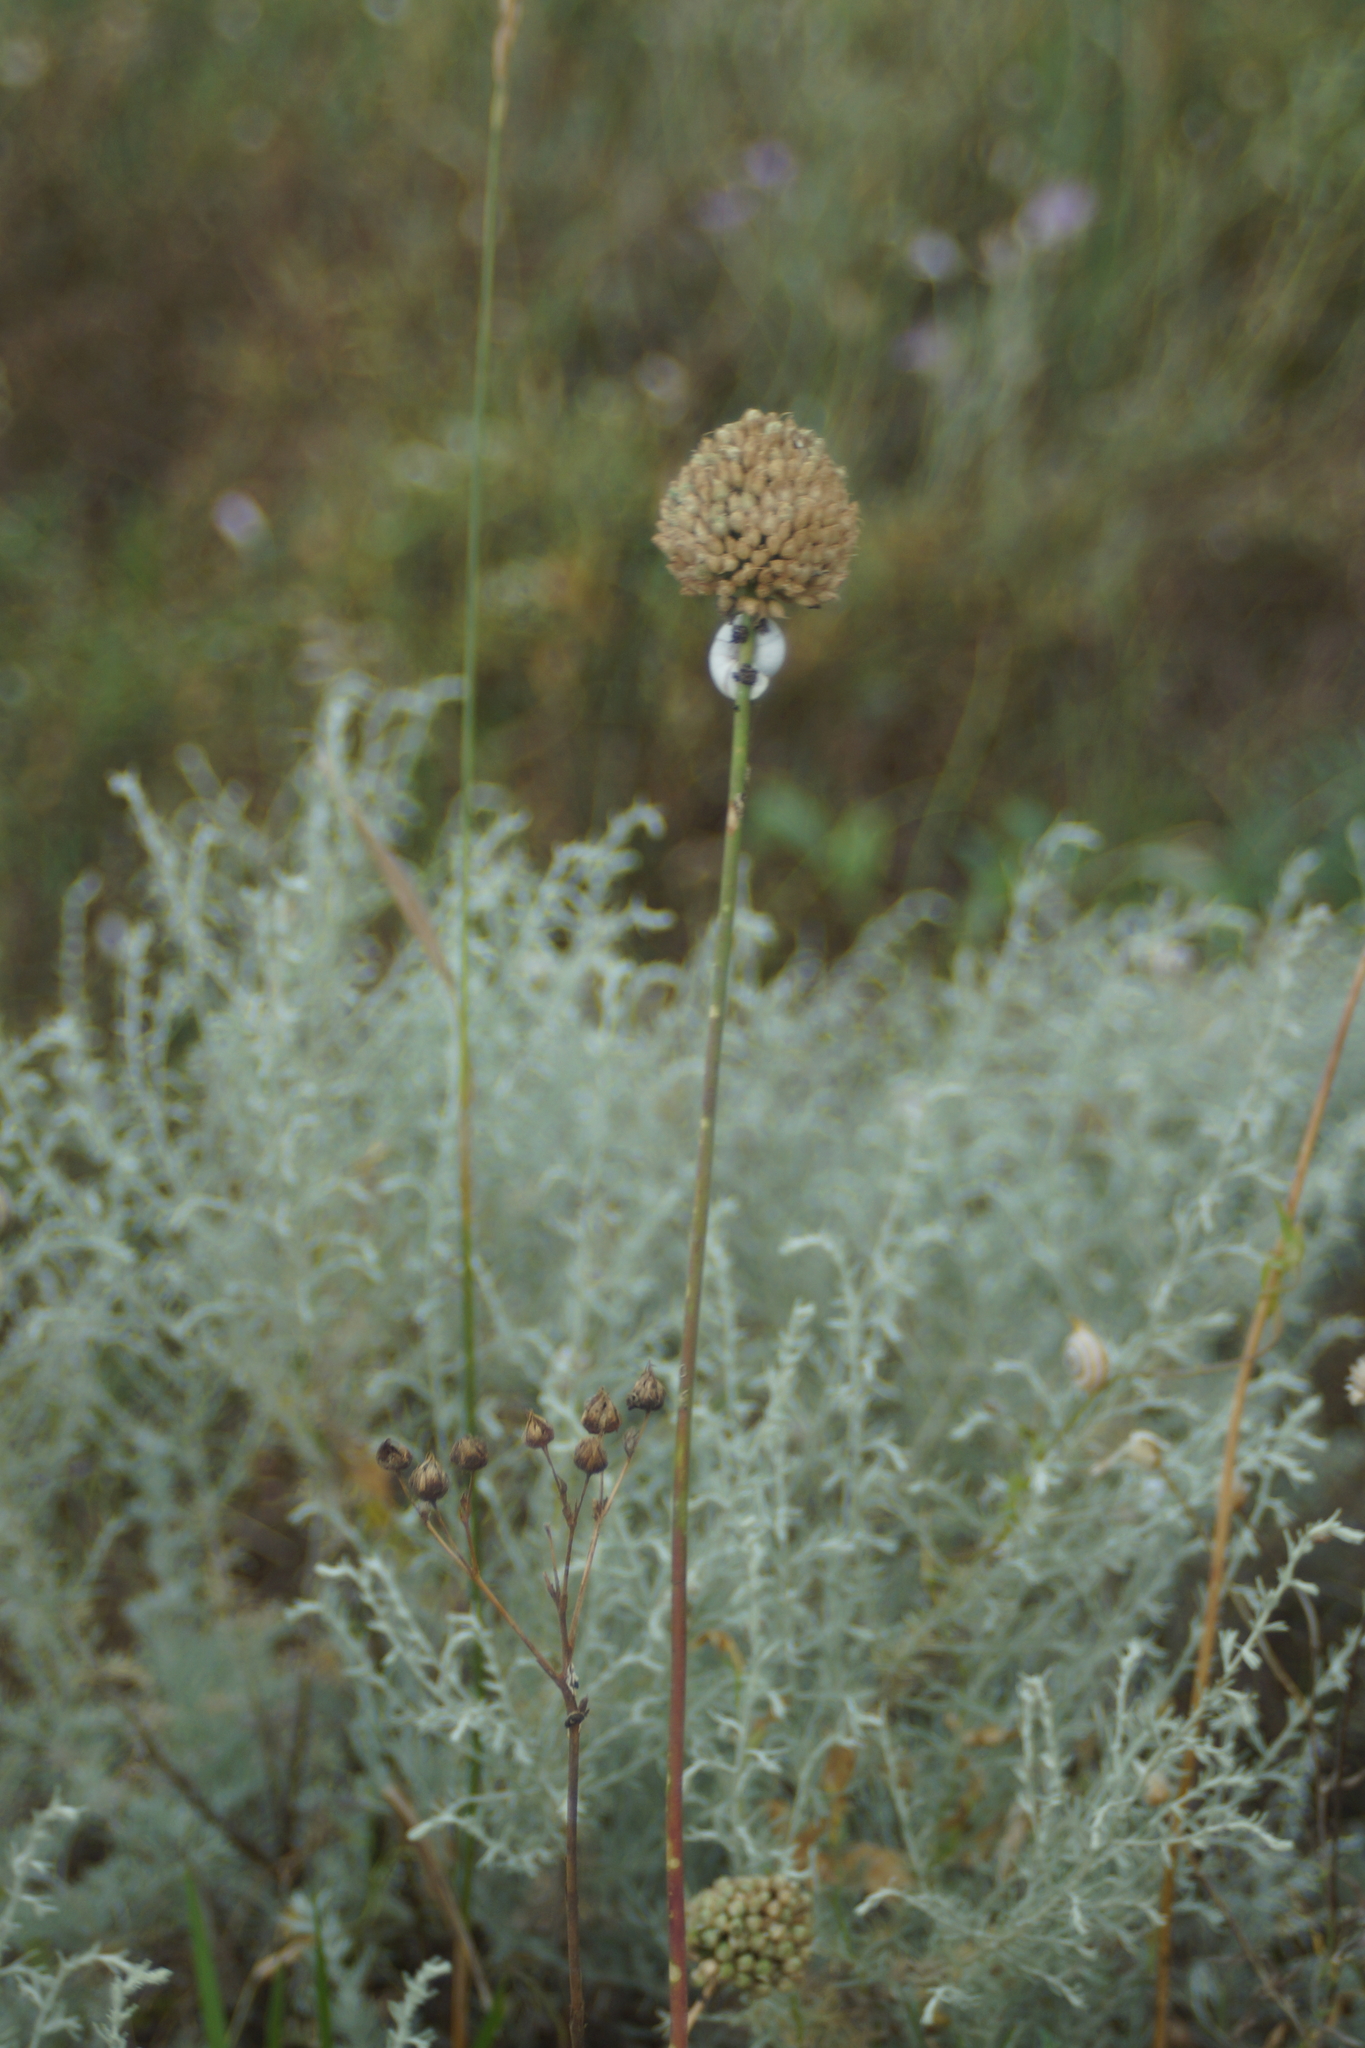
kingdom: Plantae
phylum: Tracheophyta
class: Liliopsida
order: Asparagales
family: Amaryllidaceae
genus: Allium
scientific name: Allium sphaerocephalon
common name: Round-headed leek
